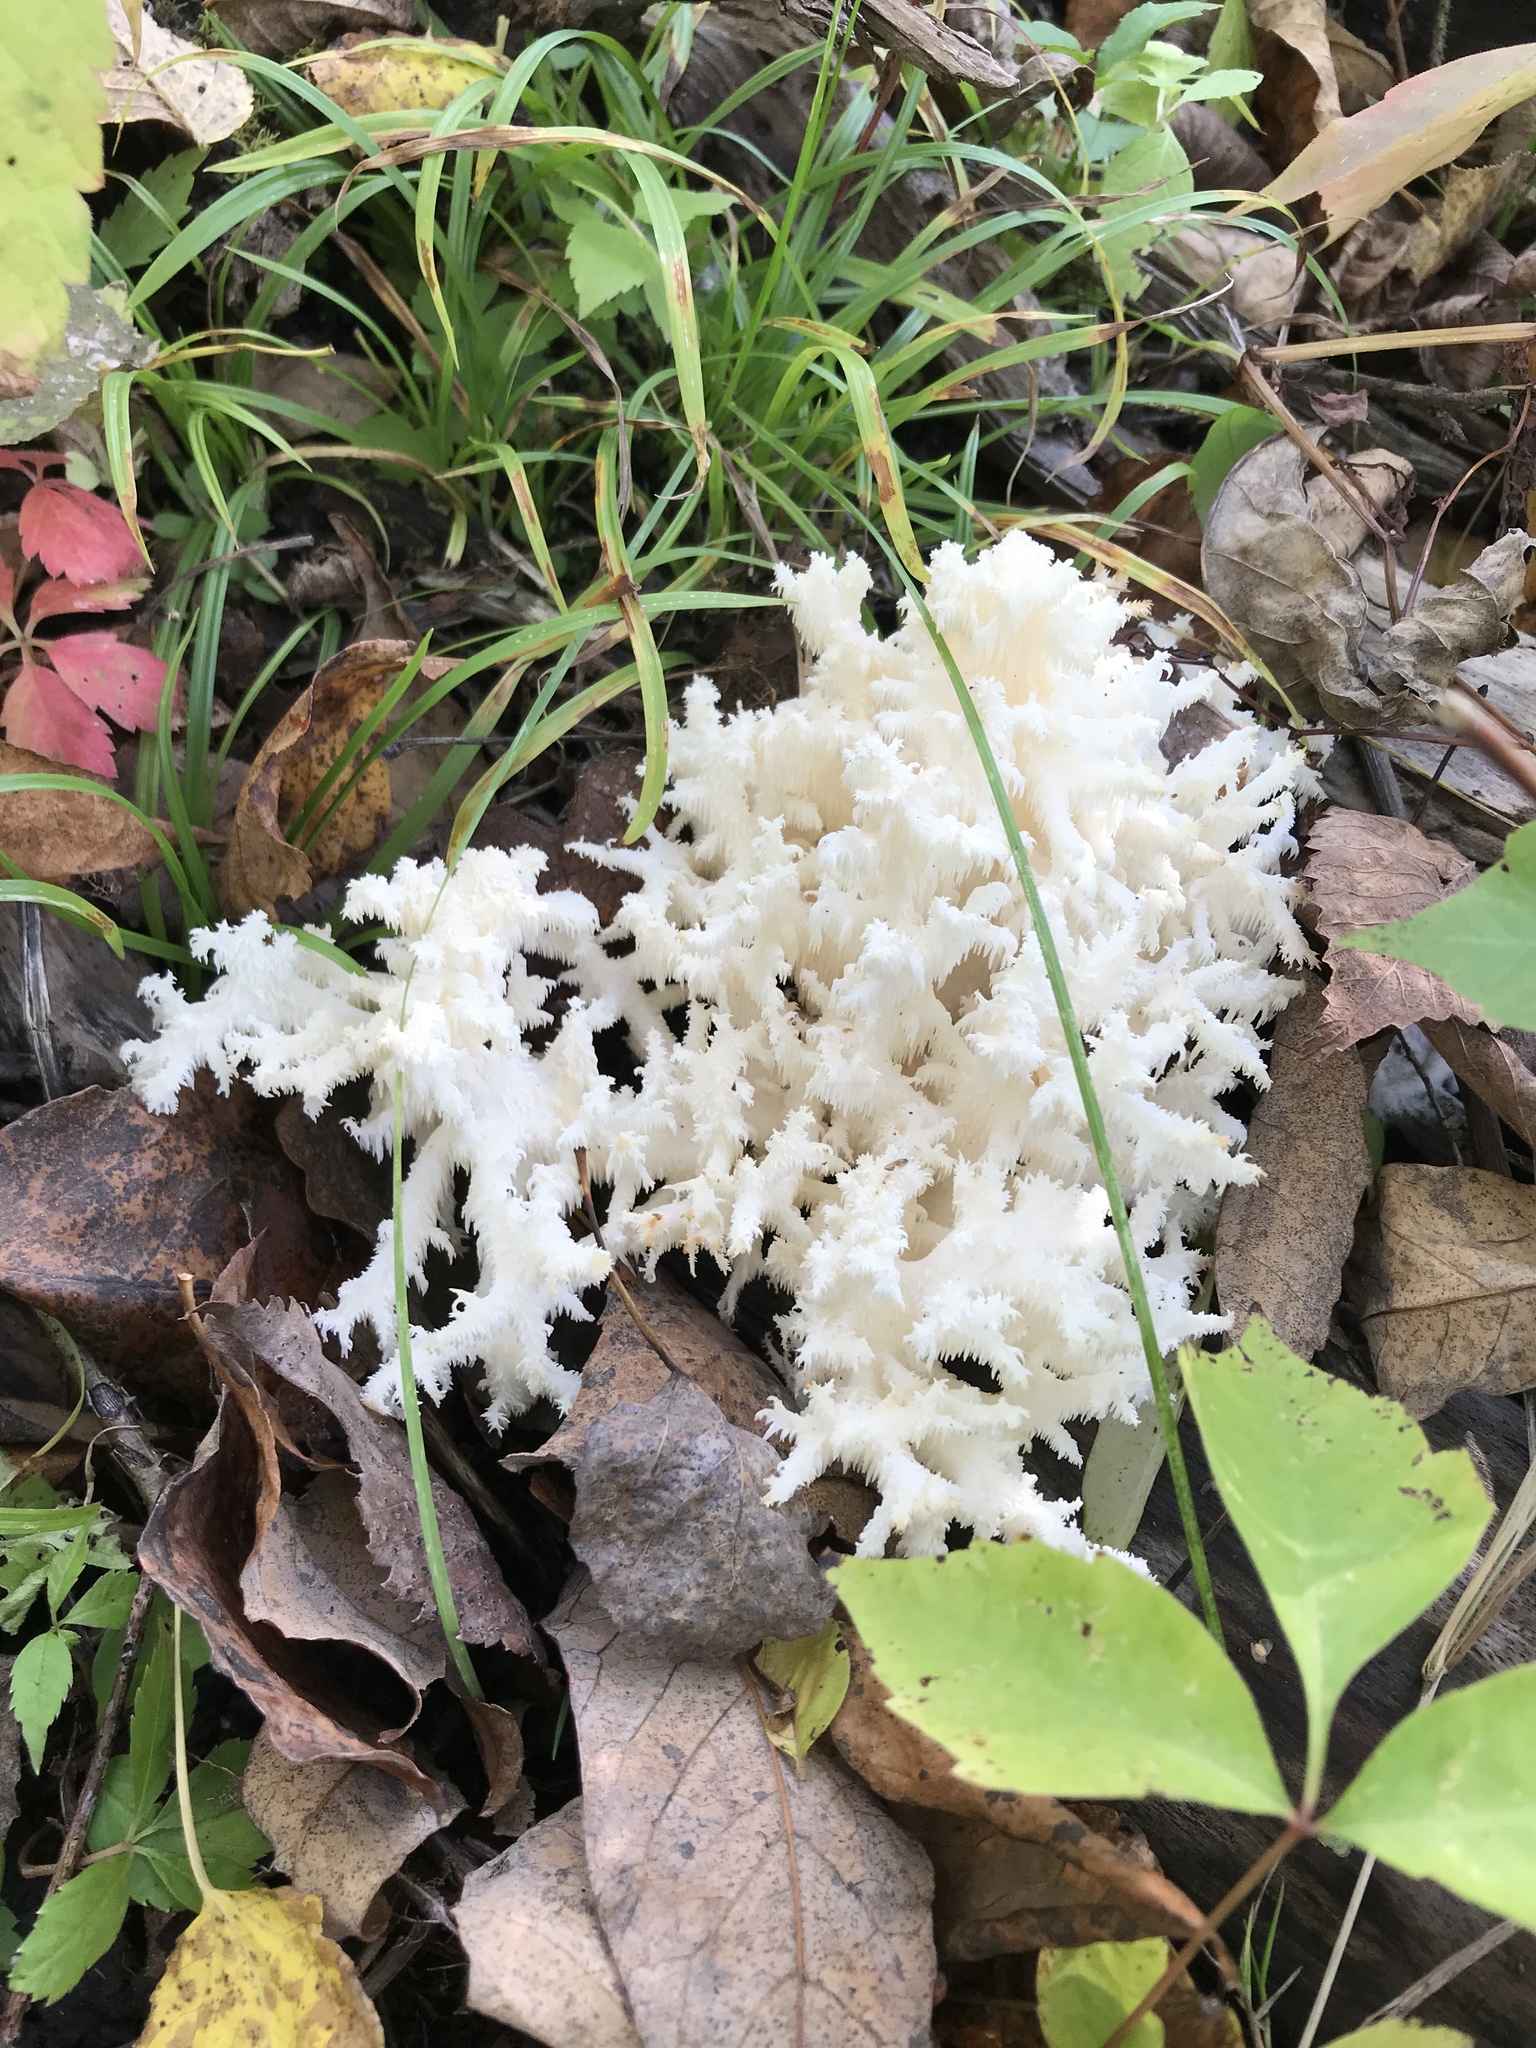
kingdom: Fungi
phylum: Basidiomycota
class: Agaricomycetes
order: Russulales
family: Hericiaceae
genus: Hericium
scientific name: Hericium coralloides
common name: Coral tooth
